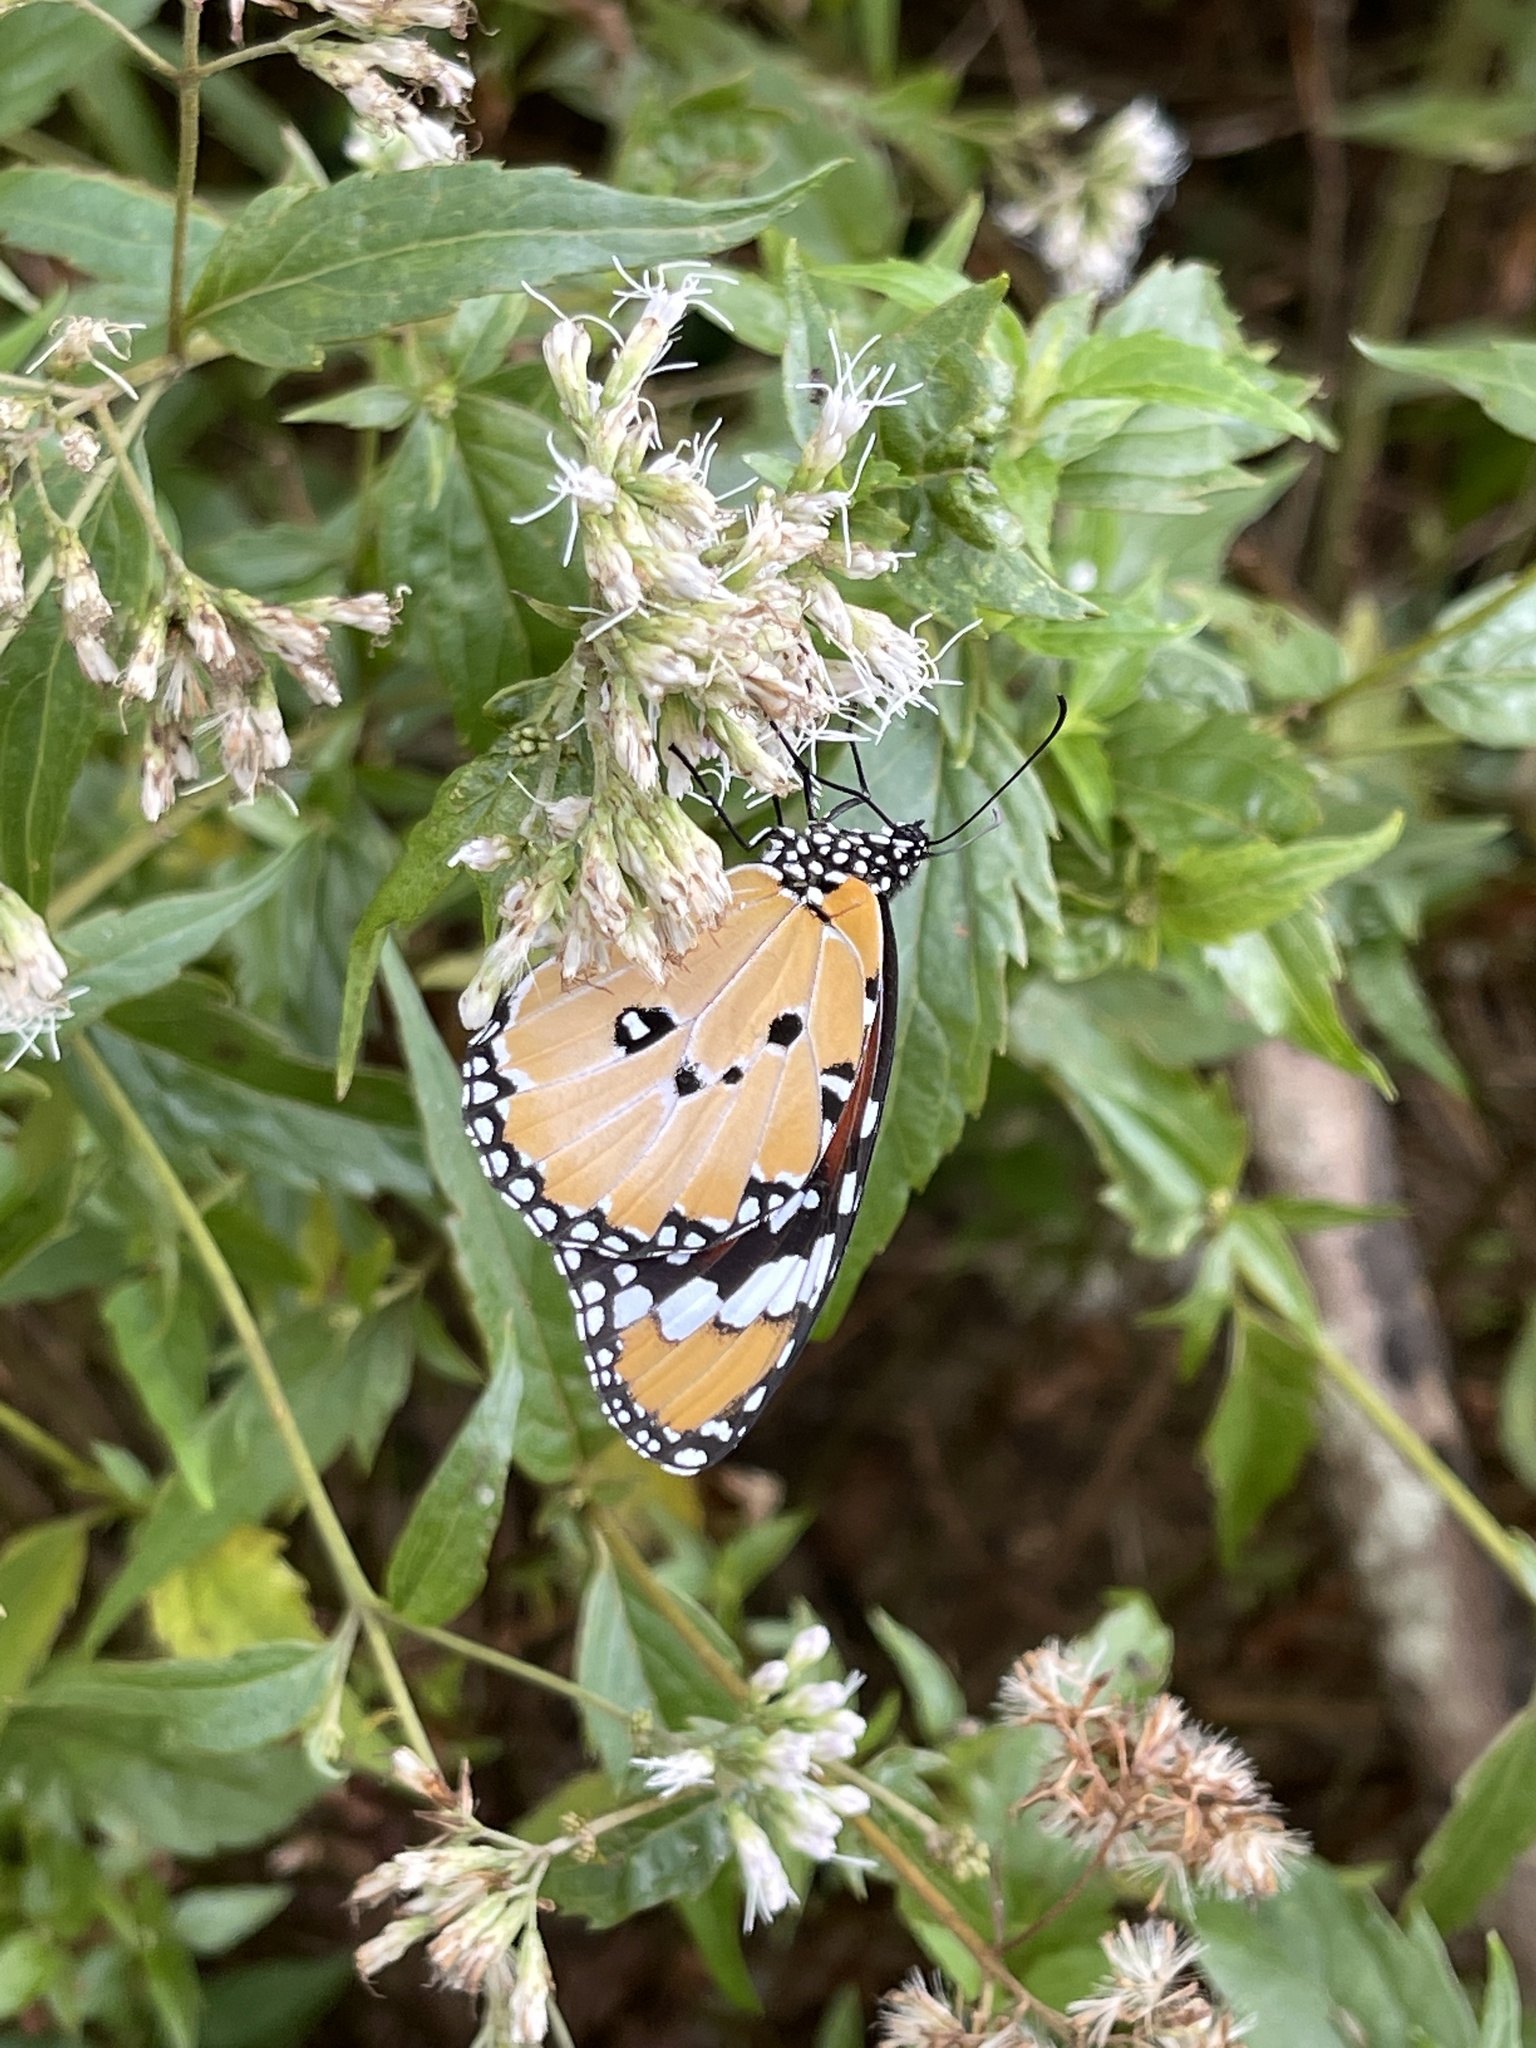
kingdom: Animalia
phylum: Arthropoda
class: Insecta
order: Lepidoptera
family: Nymphalidae
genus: Danaus
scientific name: Danaus chrysippus
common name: Plain tiger
